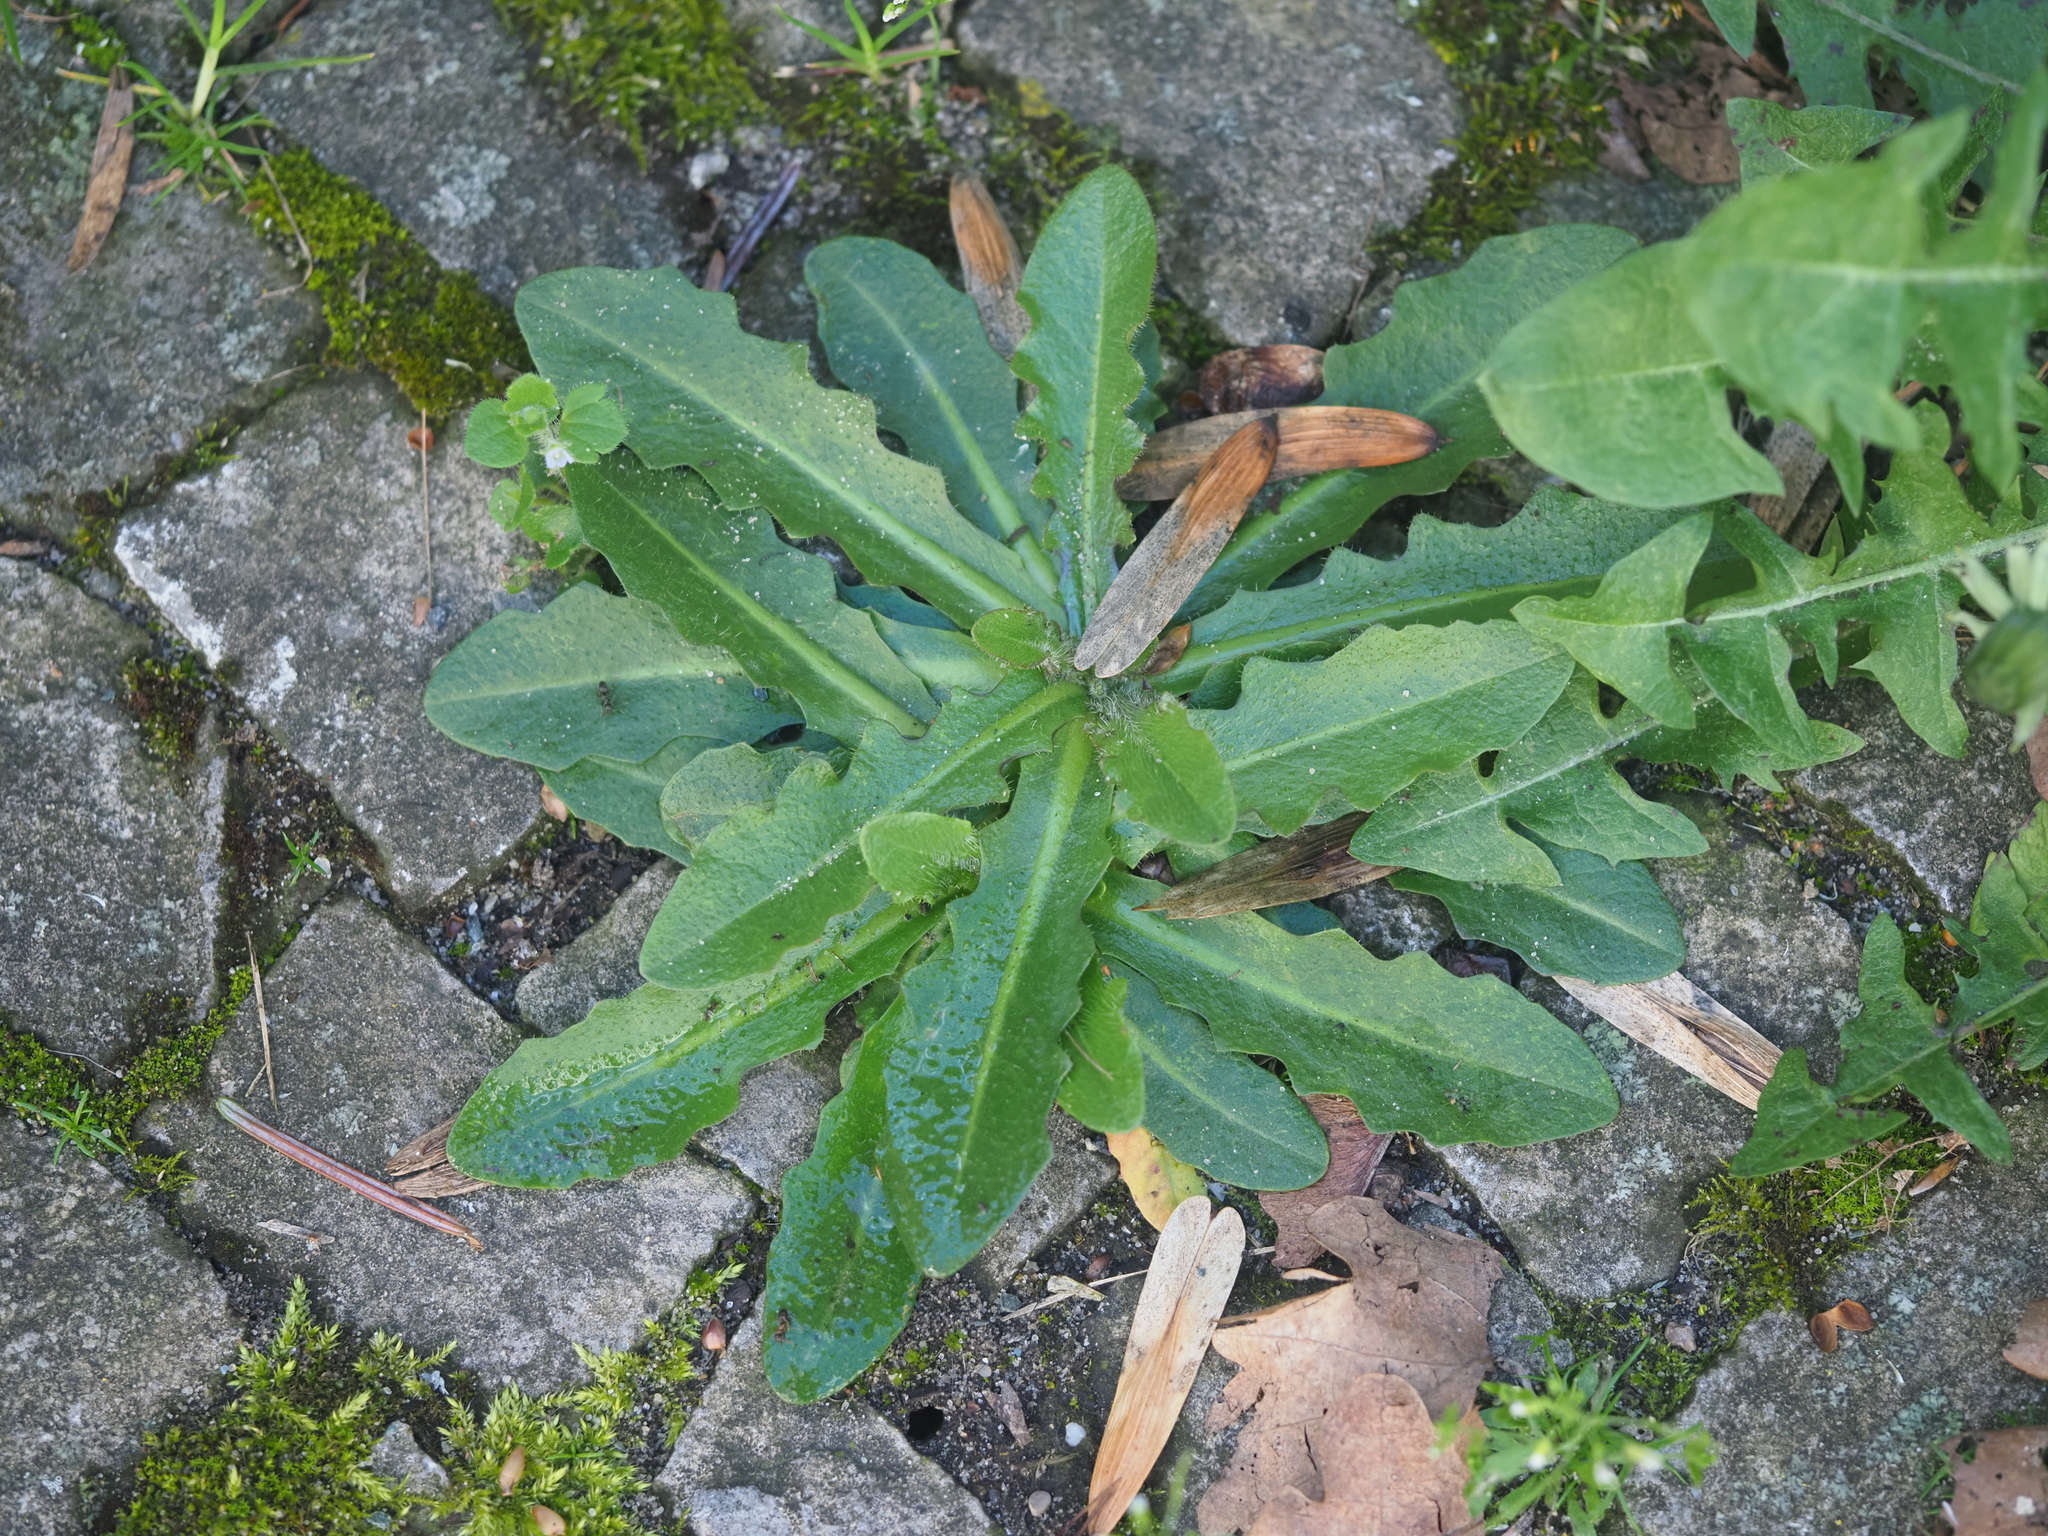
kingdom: Plantae
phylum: Tracheophyta
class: Magnoliopsida
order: Asterales
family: Asteraceae
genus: Hypochaeris
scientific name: Hypochaeris radicata
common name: Flatweed
